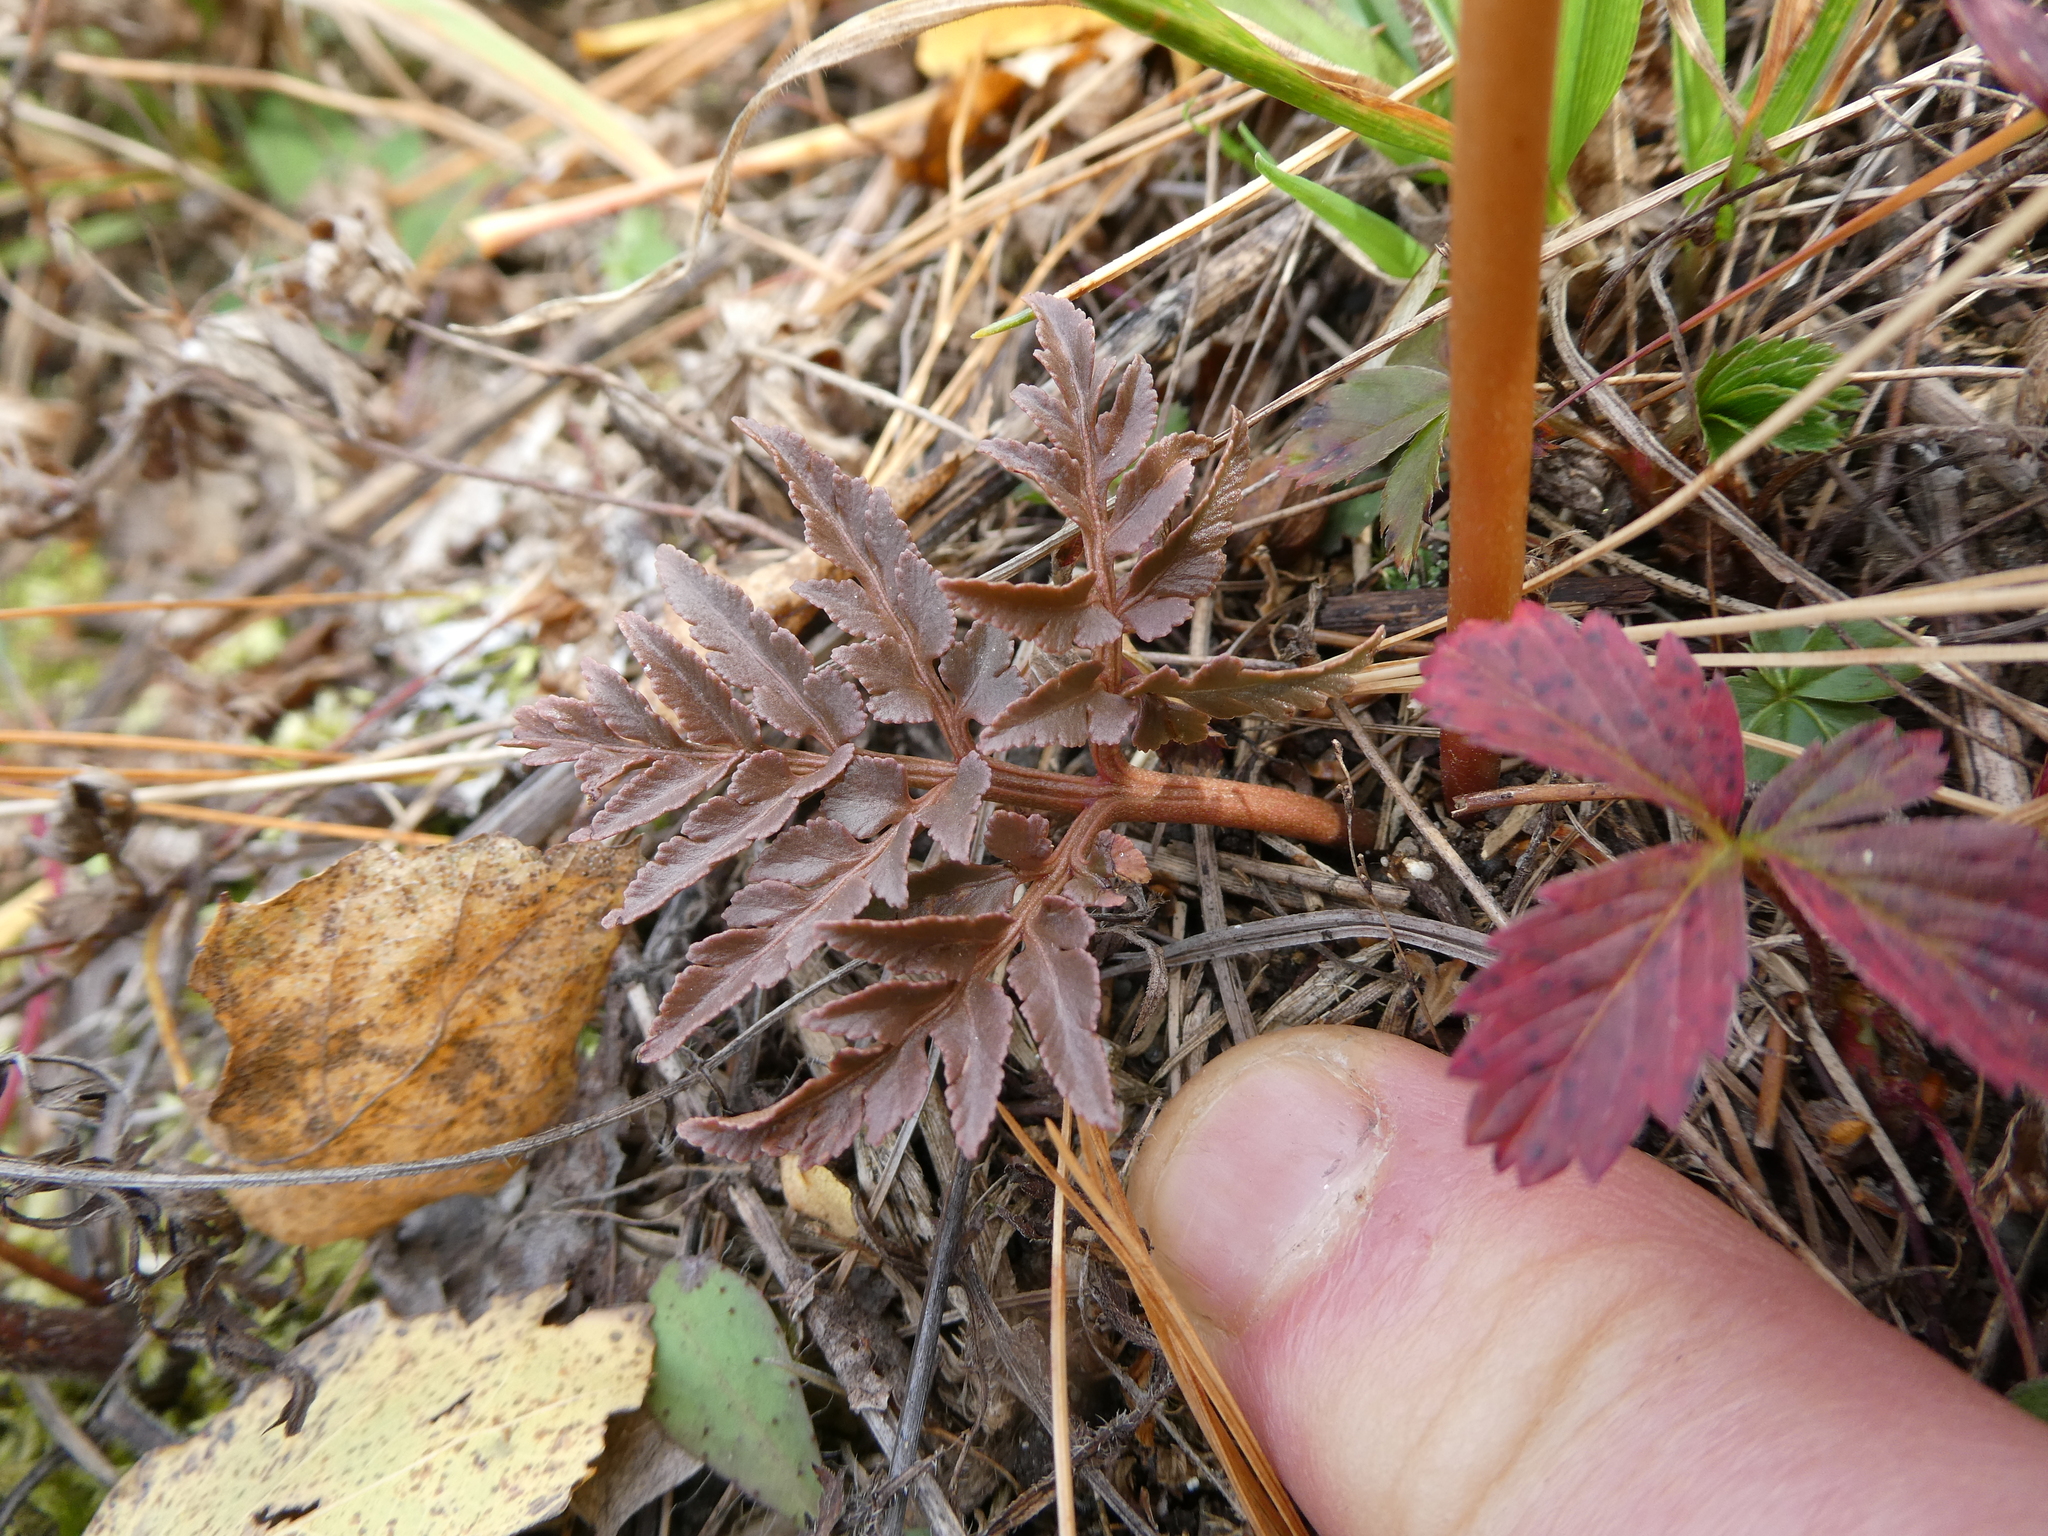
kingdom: Plantae
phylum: Tracheophyta
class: Polypodiopsida
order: Ophioglossales
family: Ophioglossaceae
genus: Sceptridium
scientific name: Sceptridium dissectum
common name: Cut-leaved grapefern
